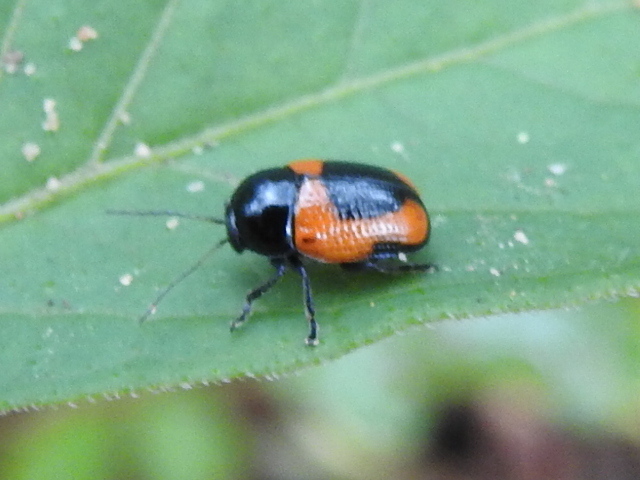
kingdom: Animalia
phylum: Arthropoda
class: Insecta
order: Coleoptera
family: Chrysomelidae
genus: Cryptocephalus
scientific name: Cryptocephalus notatus
